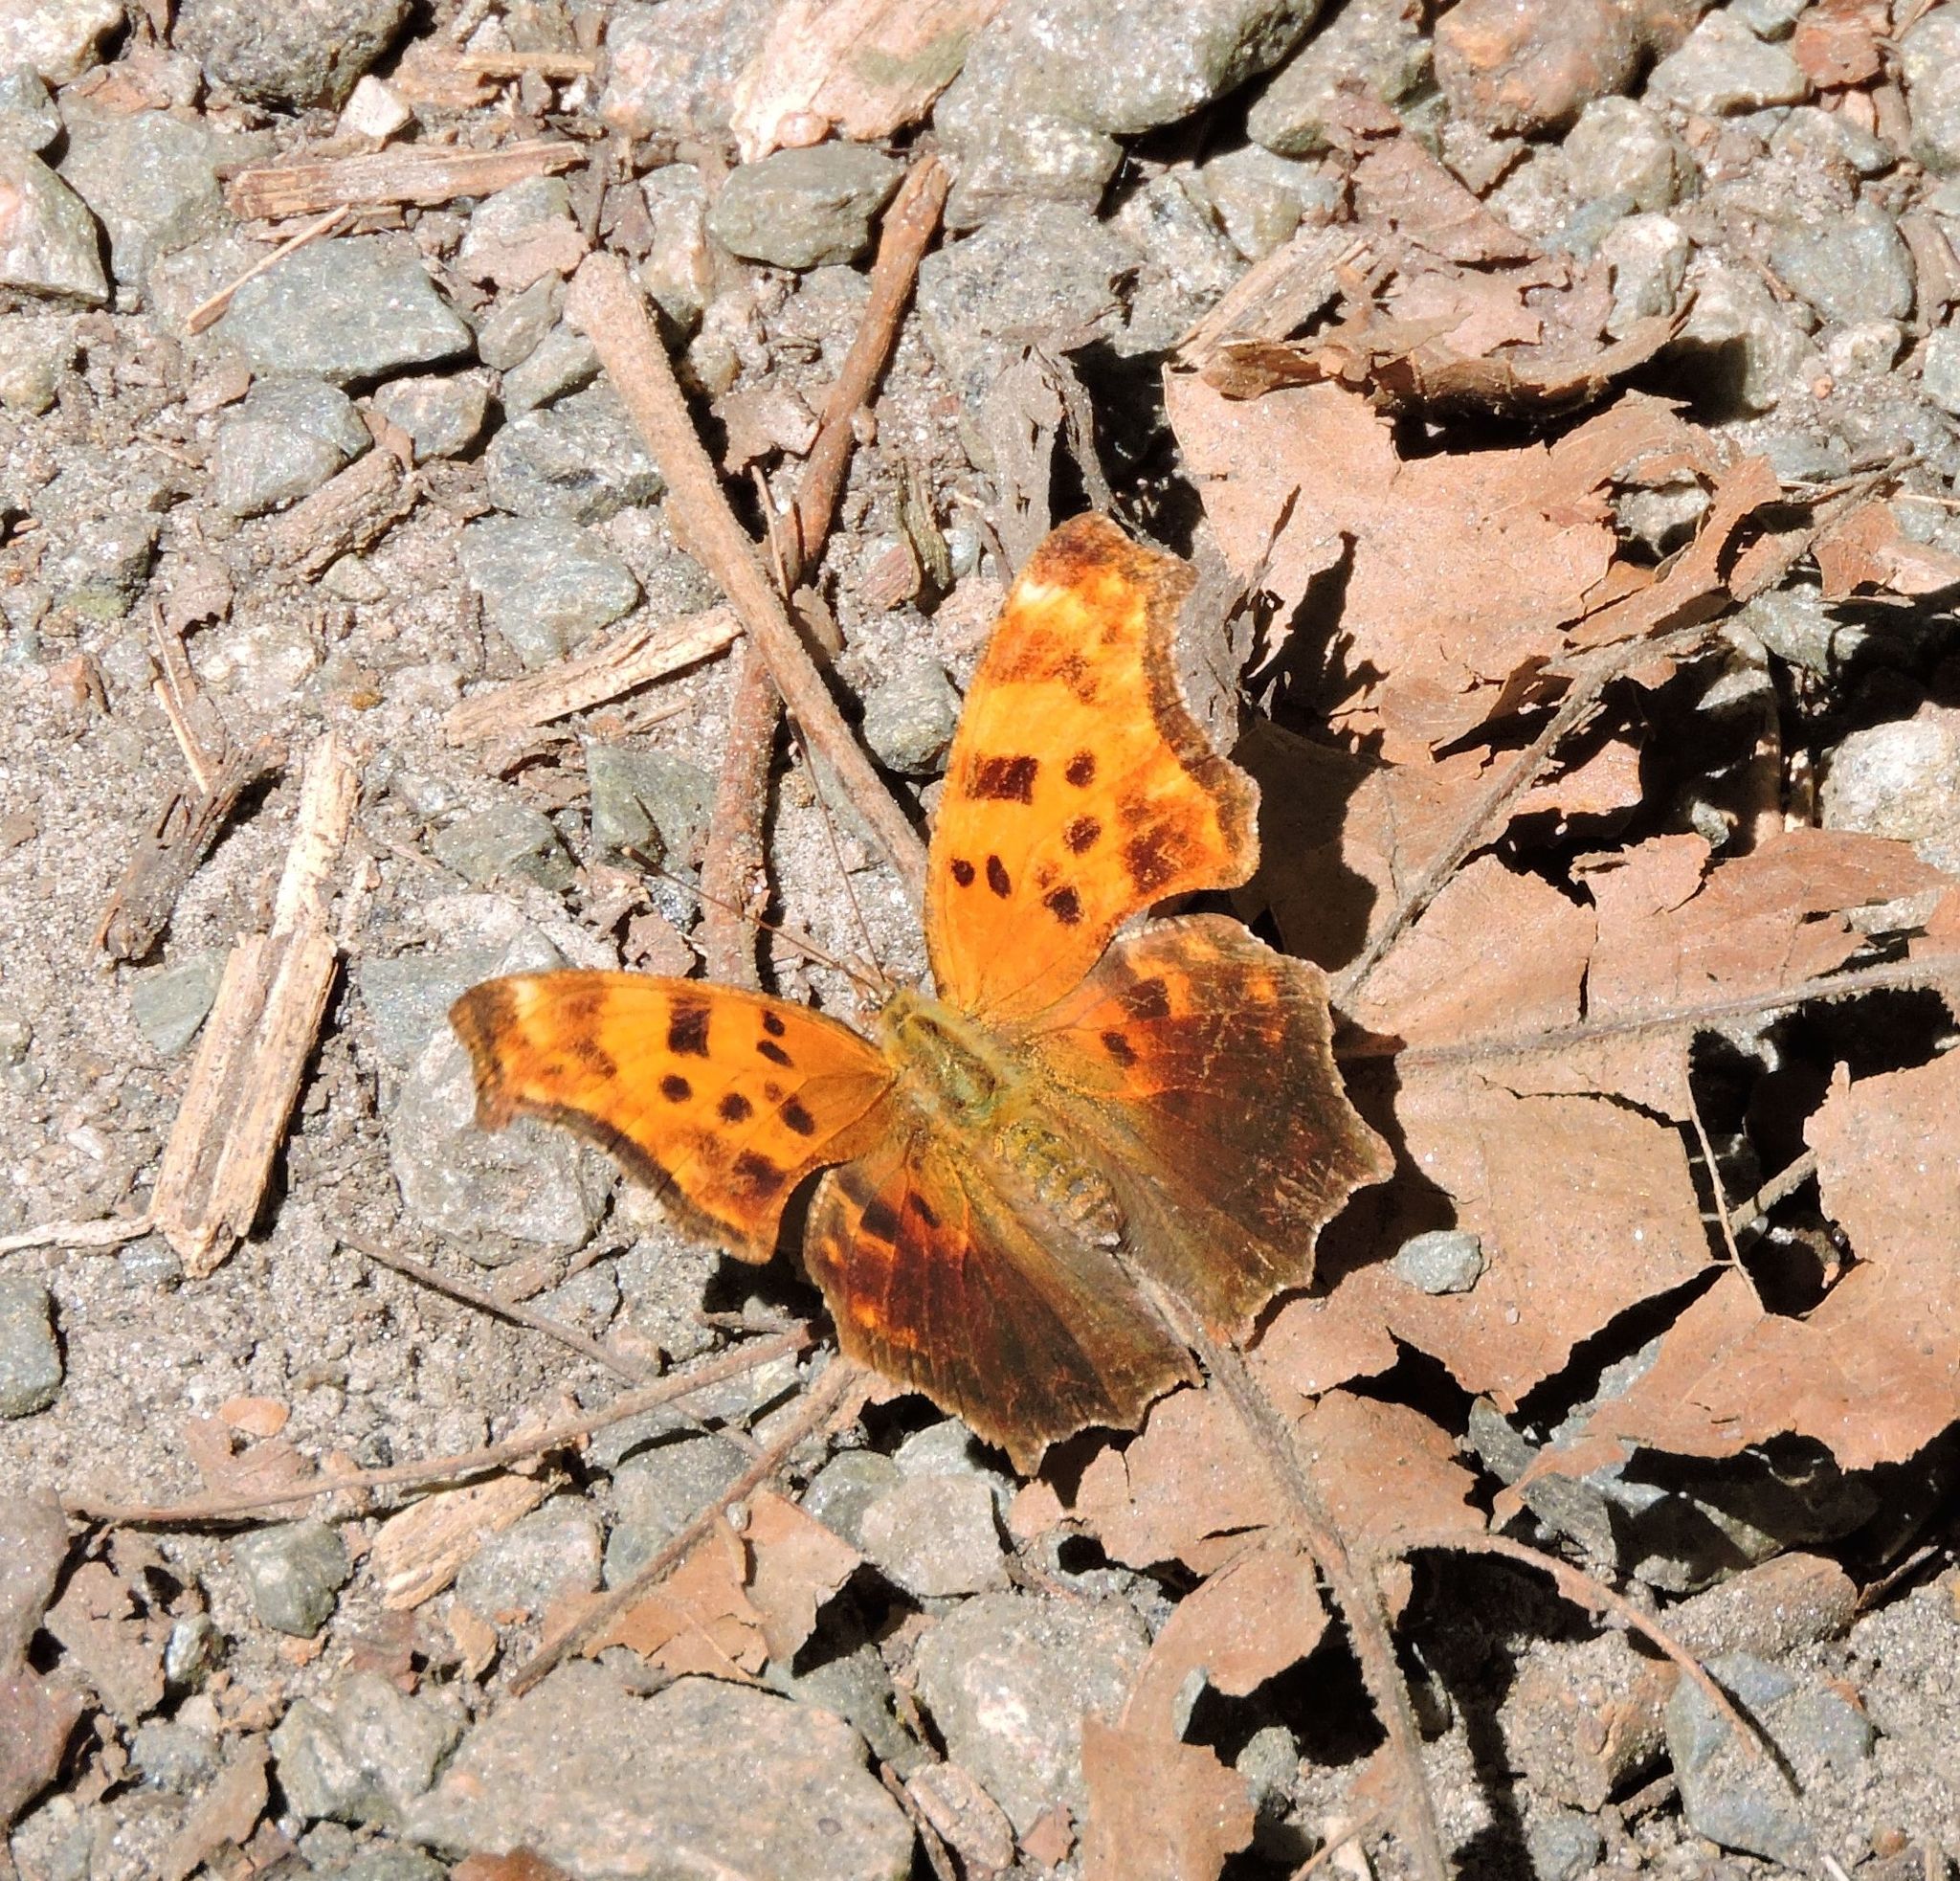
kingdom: Animalia
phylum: Arthropoda
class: Insecta
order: Lepidoptera
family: Nymphalidae
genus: Polygonia
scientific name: Polygonia comma
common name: Eastern comma
